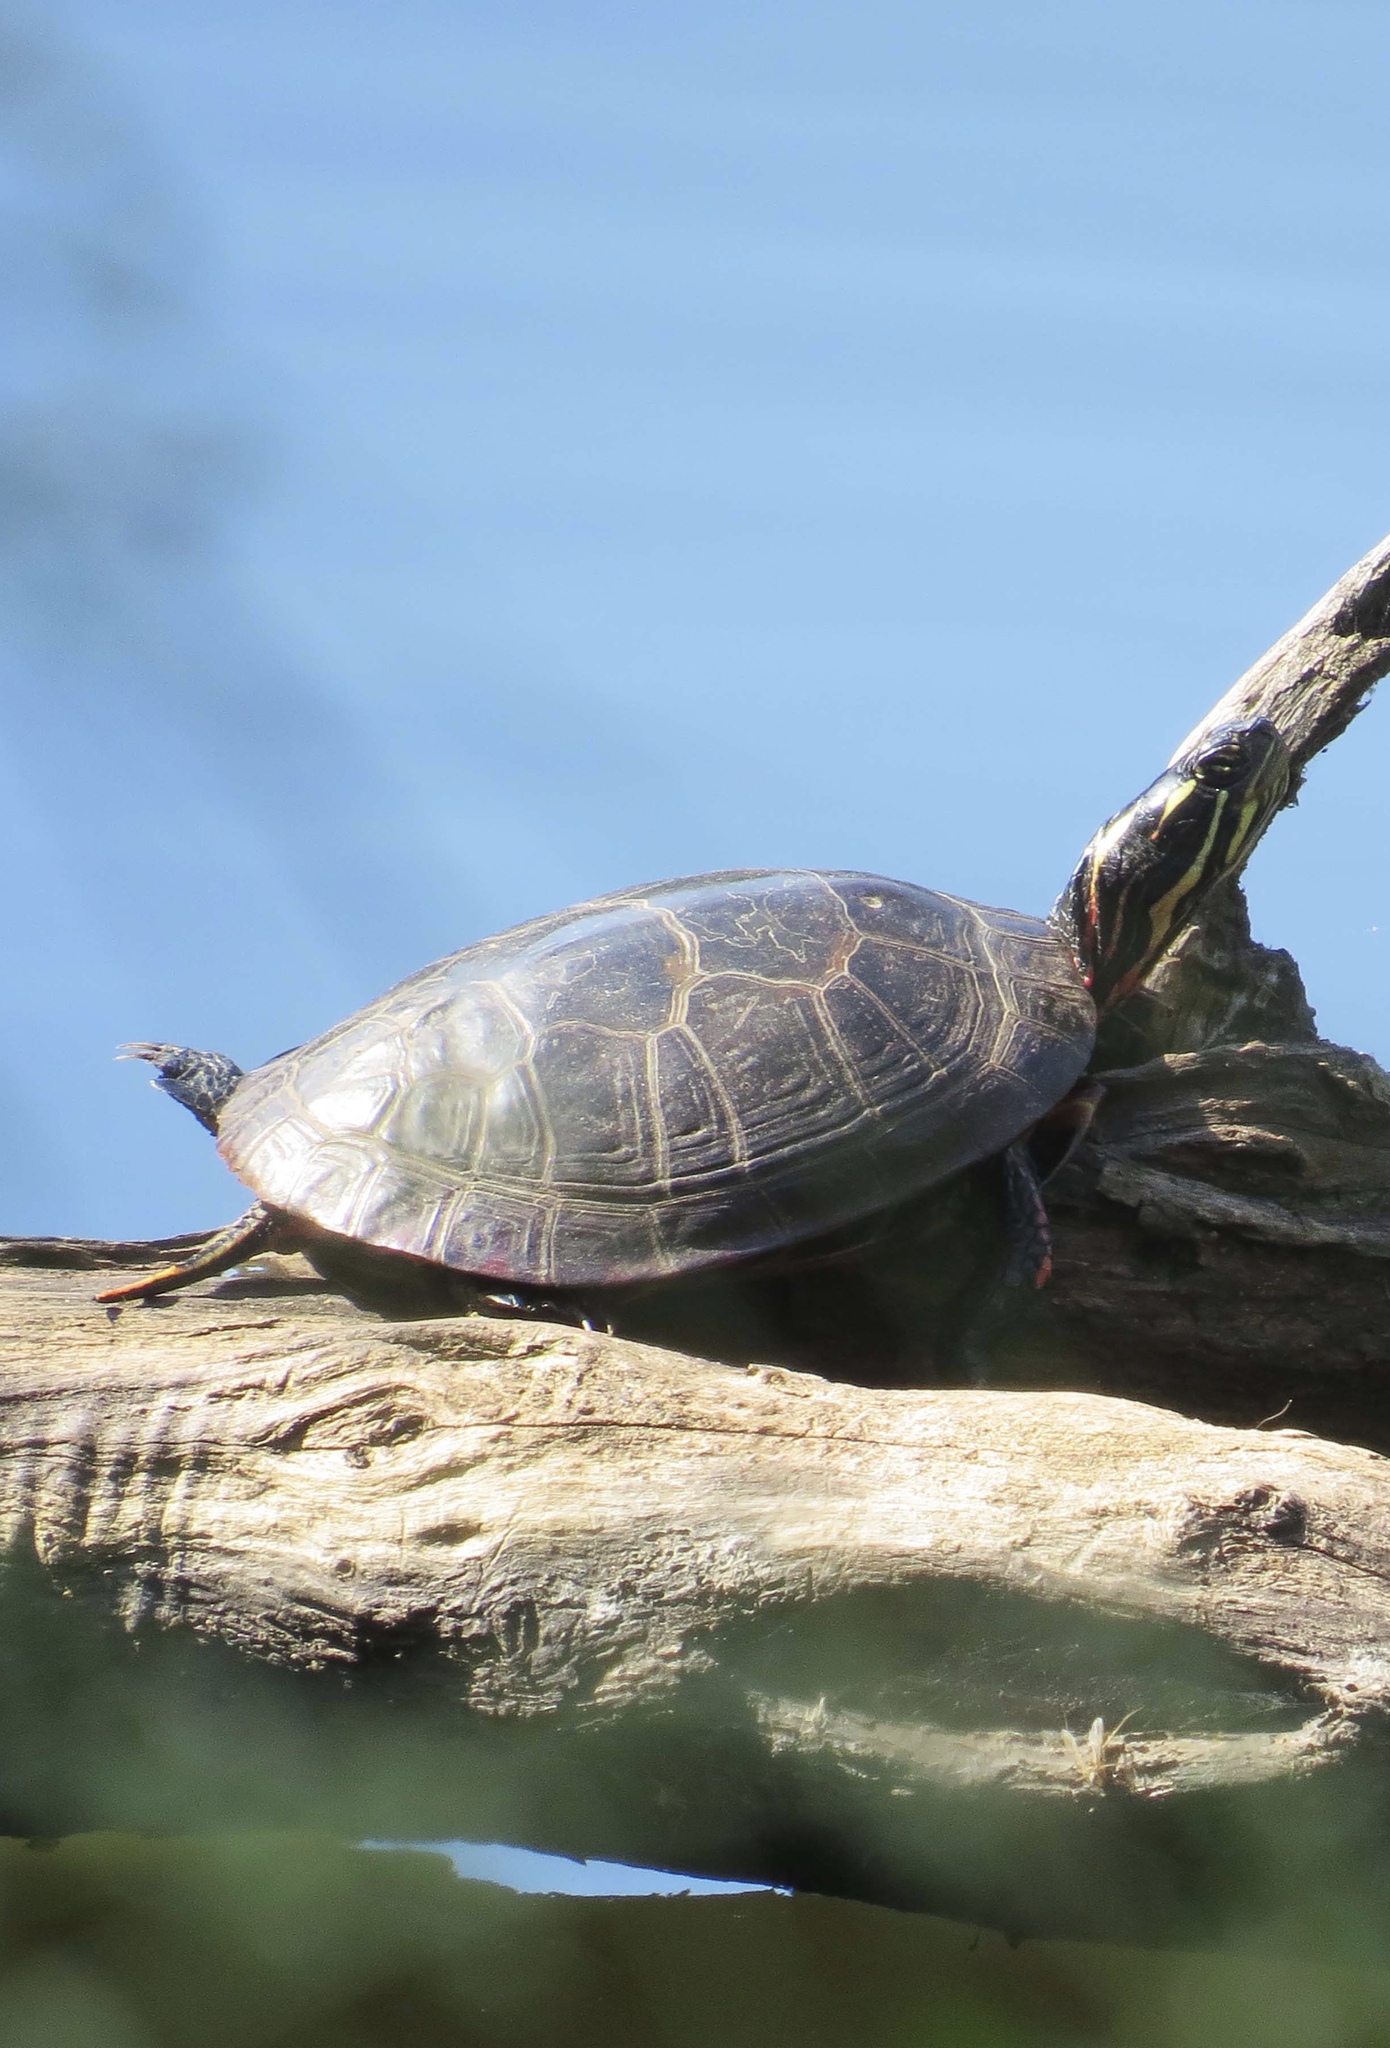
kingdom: Animalia
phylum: Chordata
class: Testudines
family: Emydidae
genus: Chrysemys
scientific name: Chrysemys picta
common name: Painted turtle
